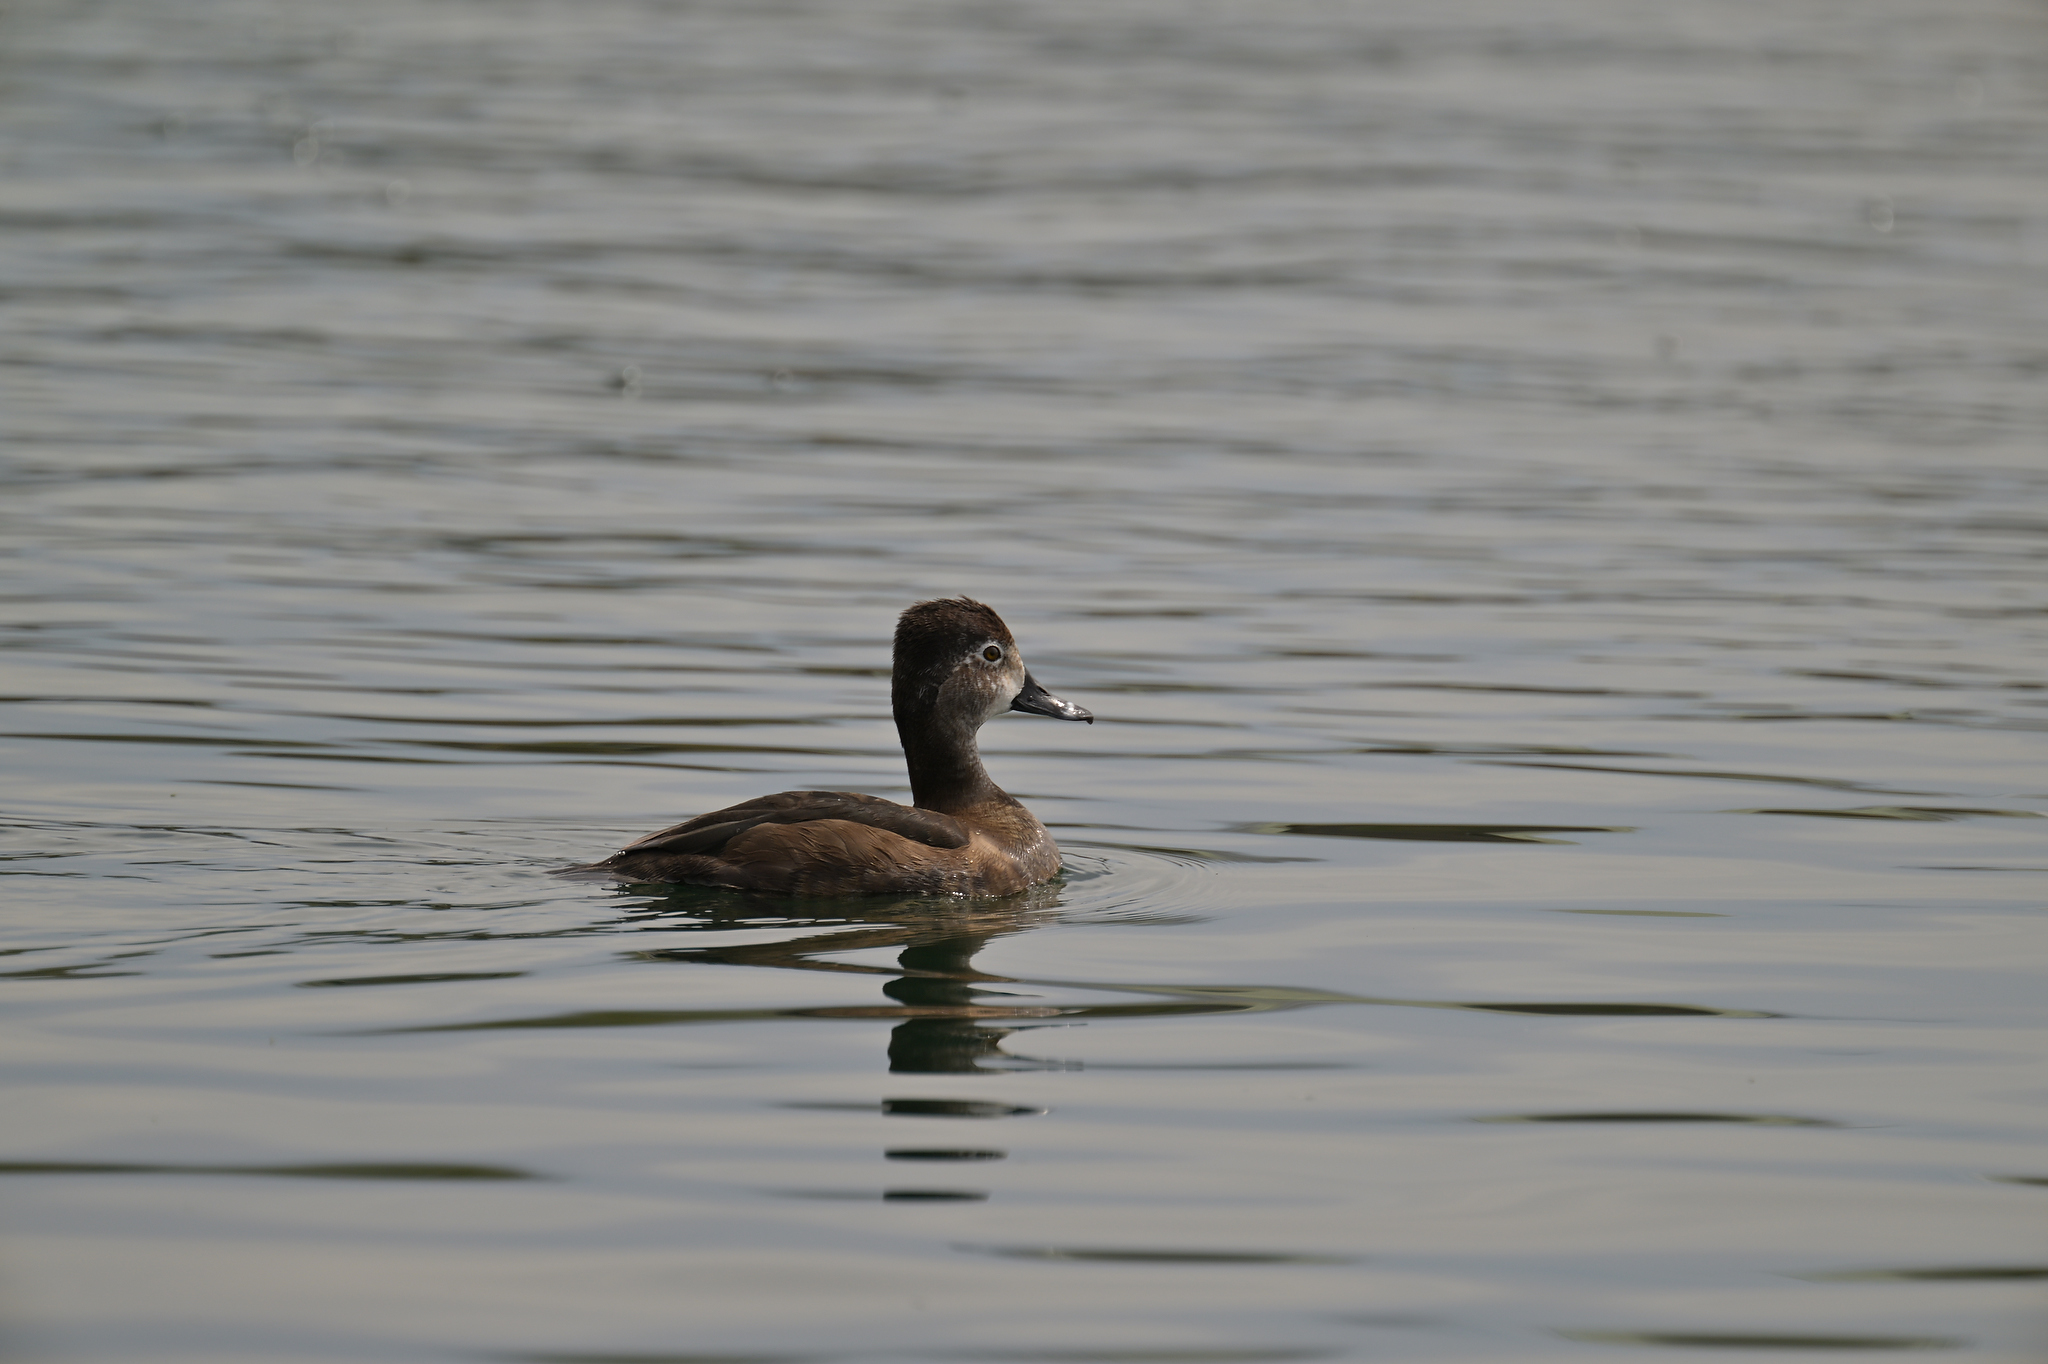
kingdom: Animalia
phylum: Chordata
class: Aves
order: Anseriformes
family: Anatidae
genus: Aythya
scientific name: Aythya collaris
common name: Ring-necked duck
